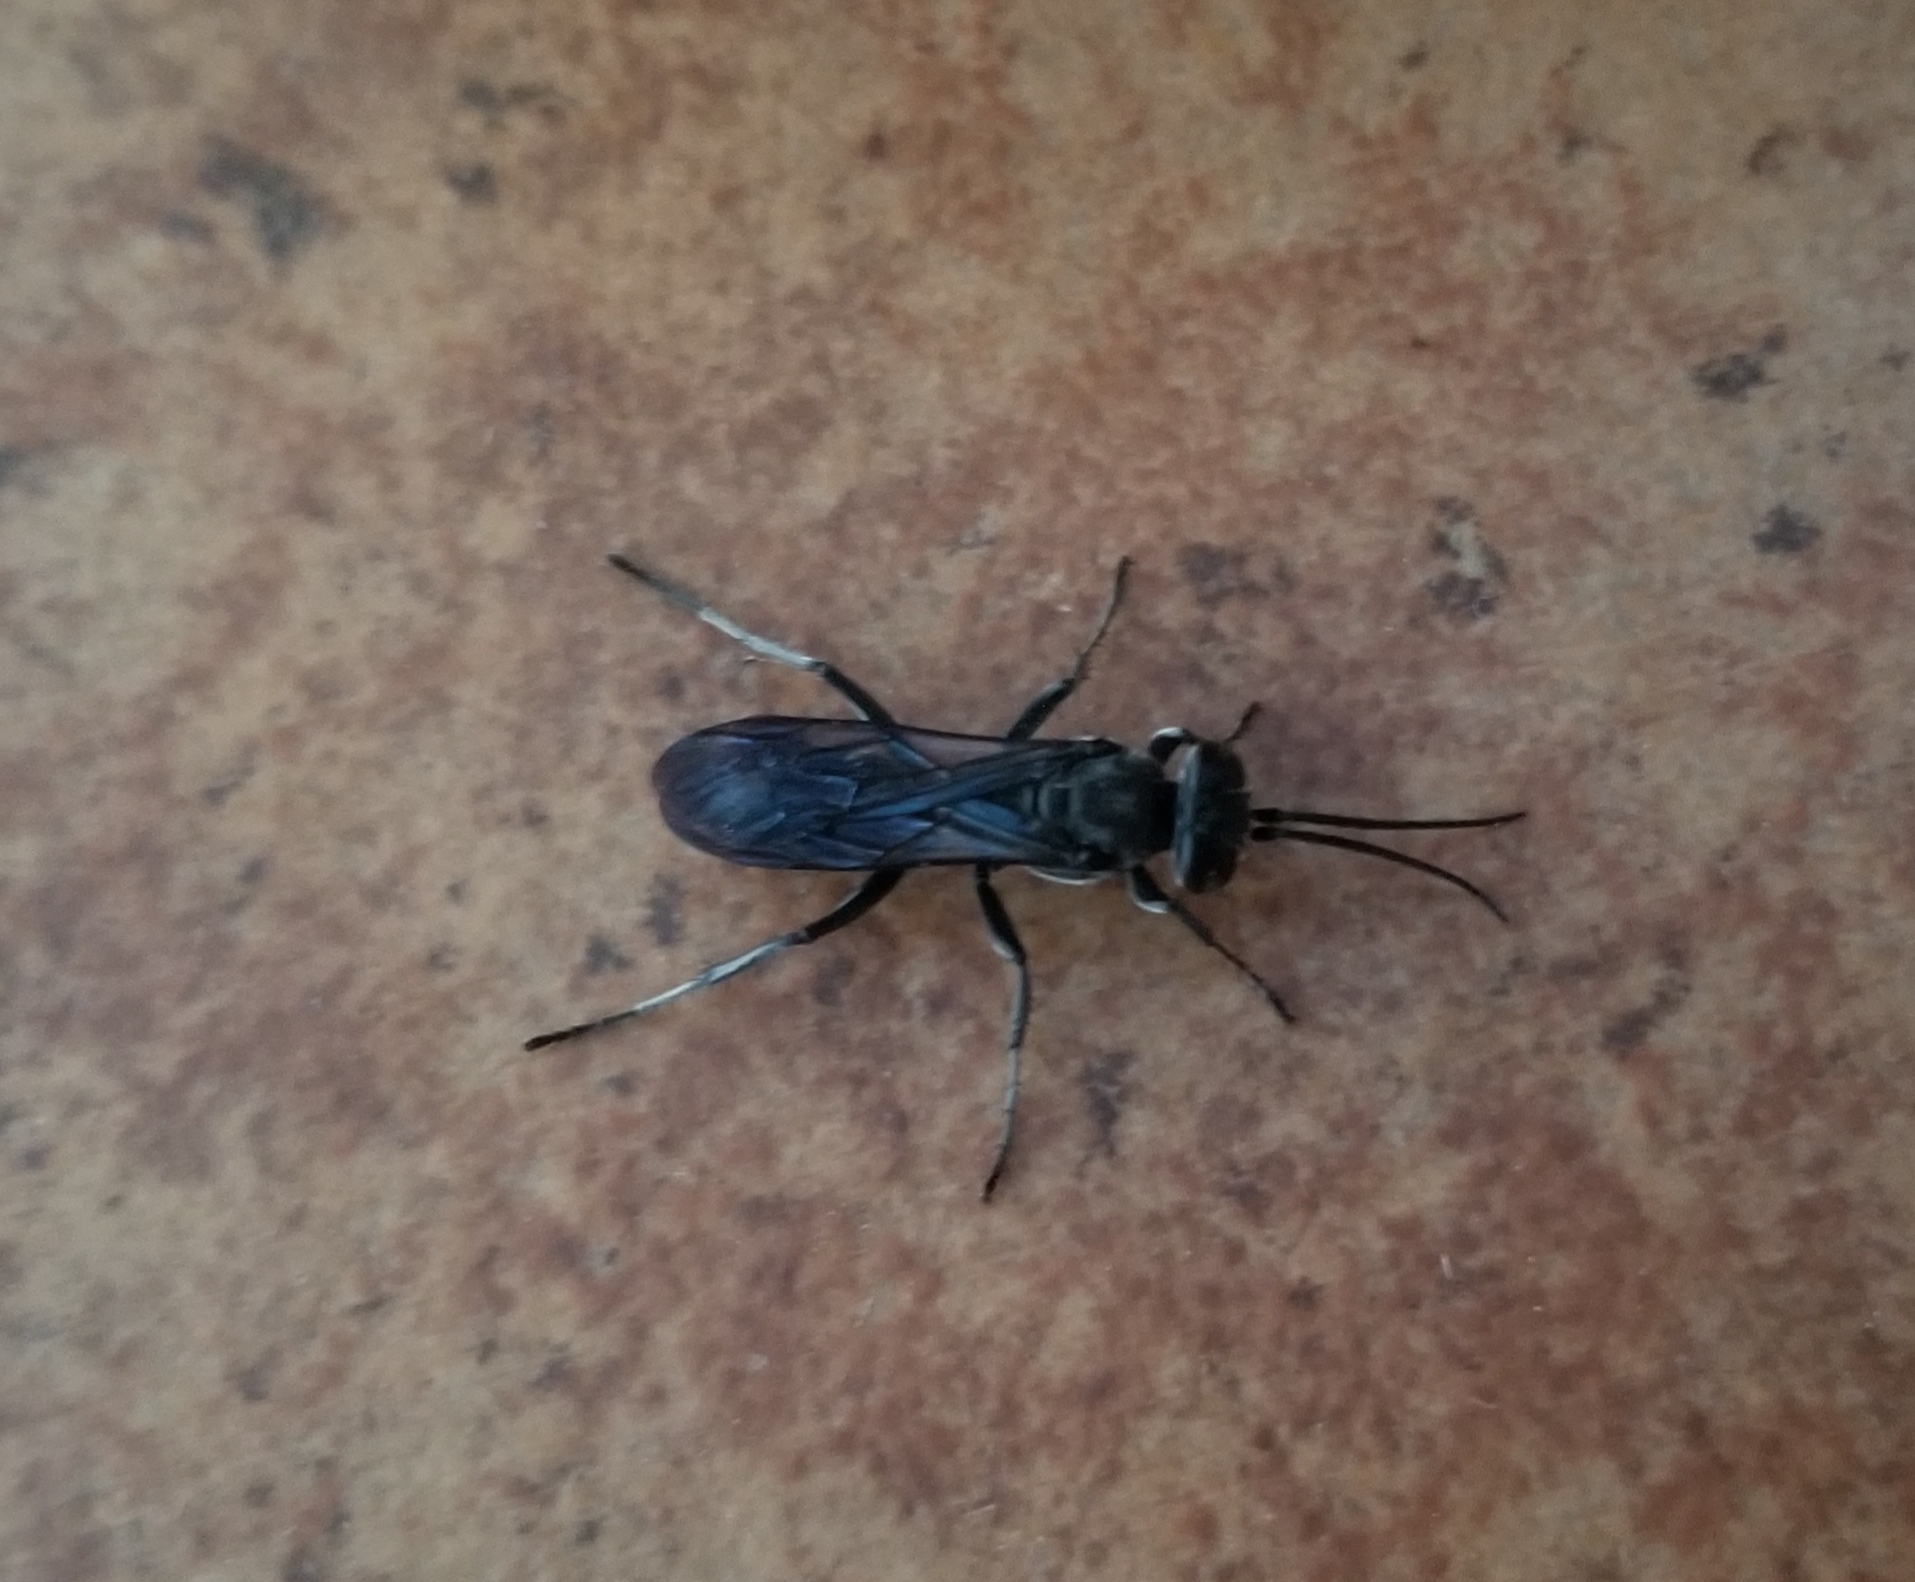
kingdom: Animalia
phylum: Arthropoda
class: Insecta
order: Hymenoptera
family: Crabronidae
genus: Liris
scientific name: Liris argentatus
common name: Crabronid wasp
